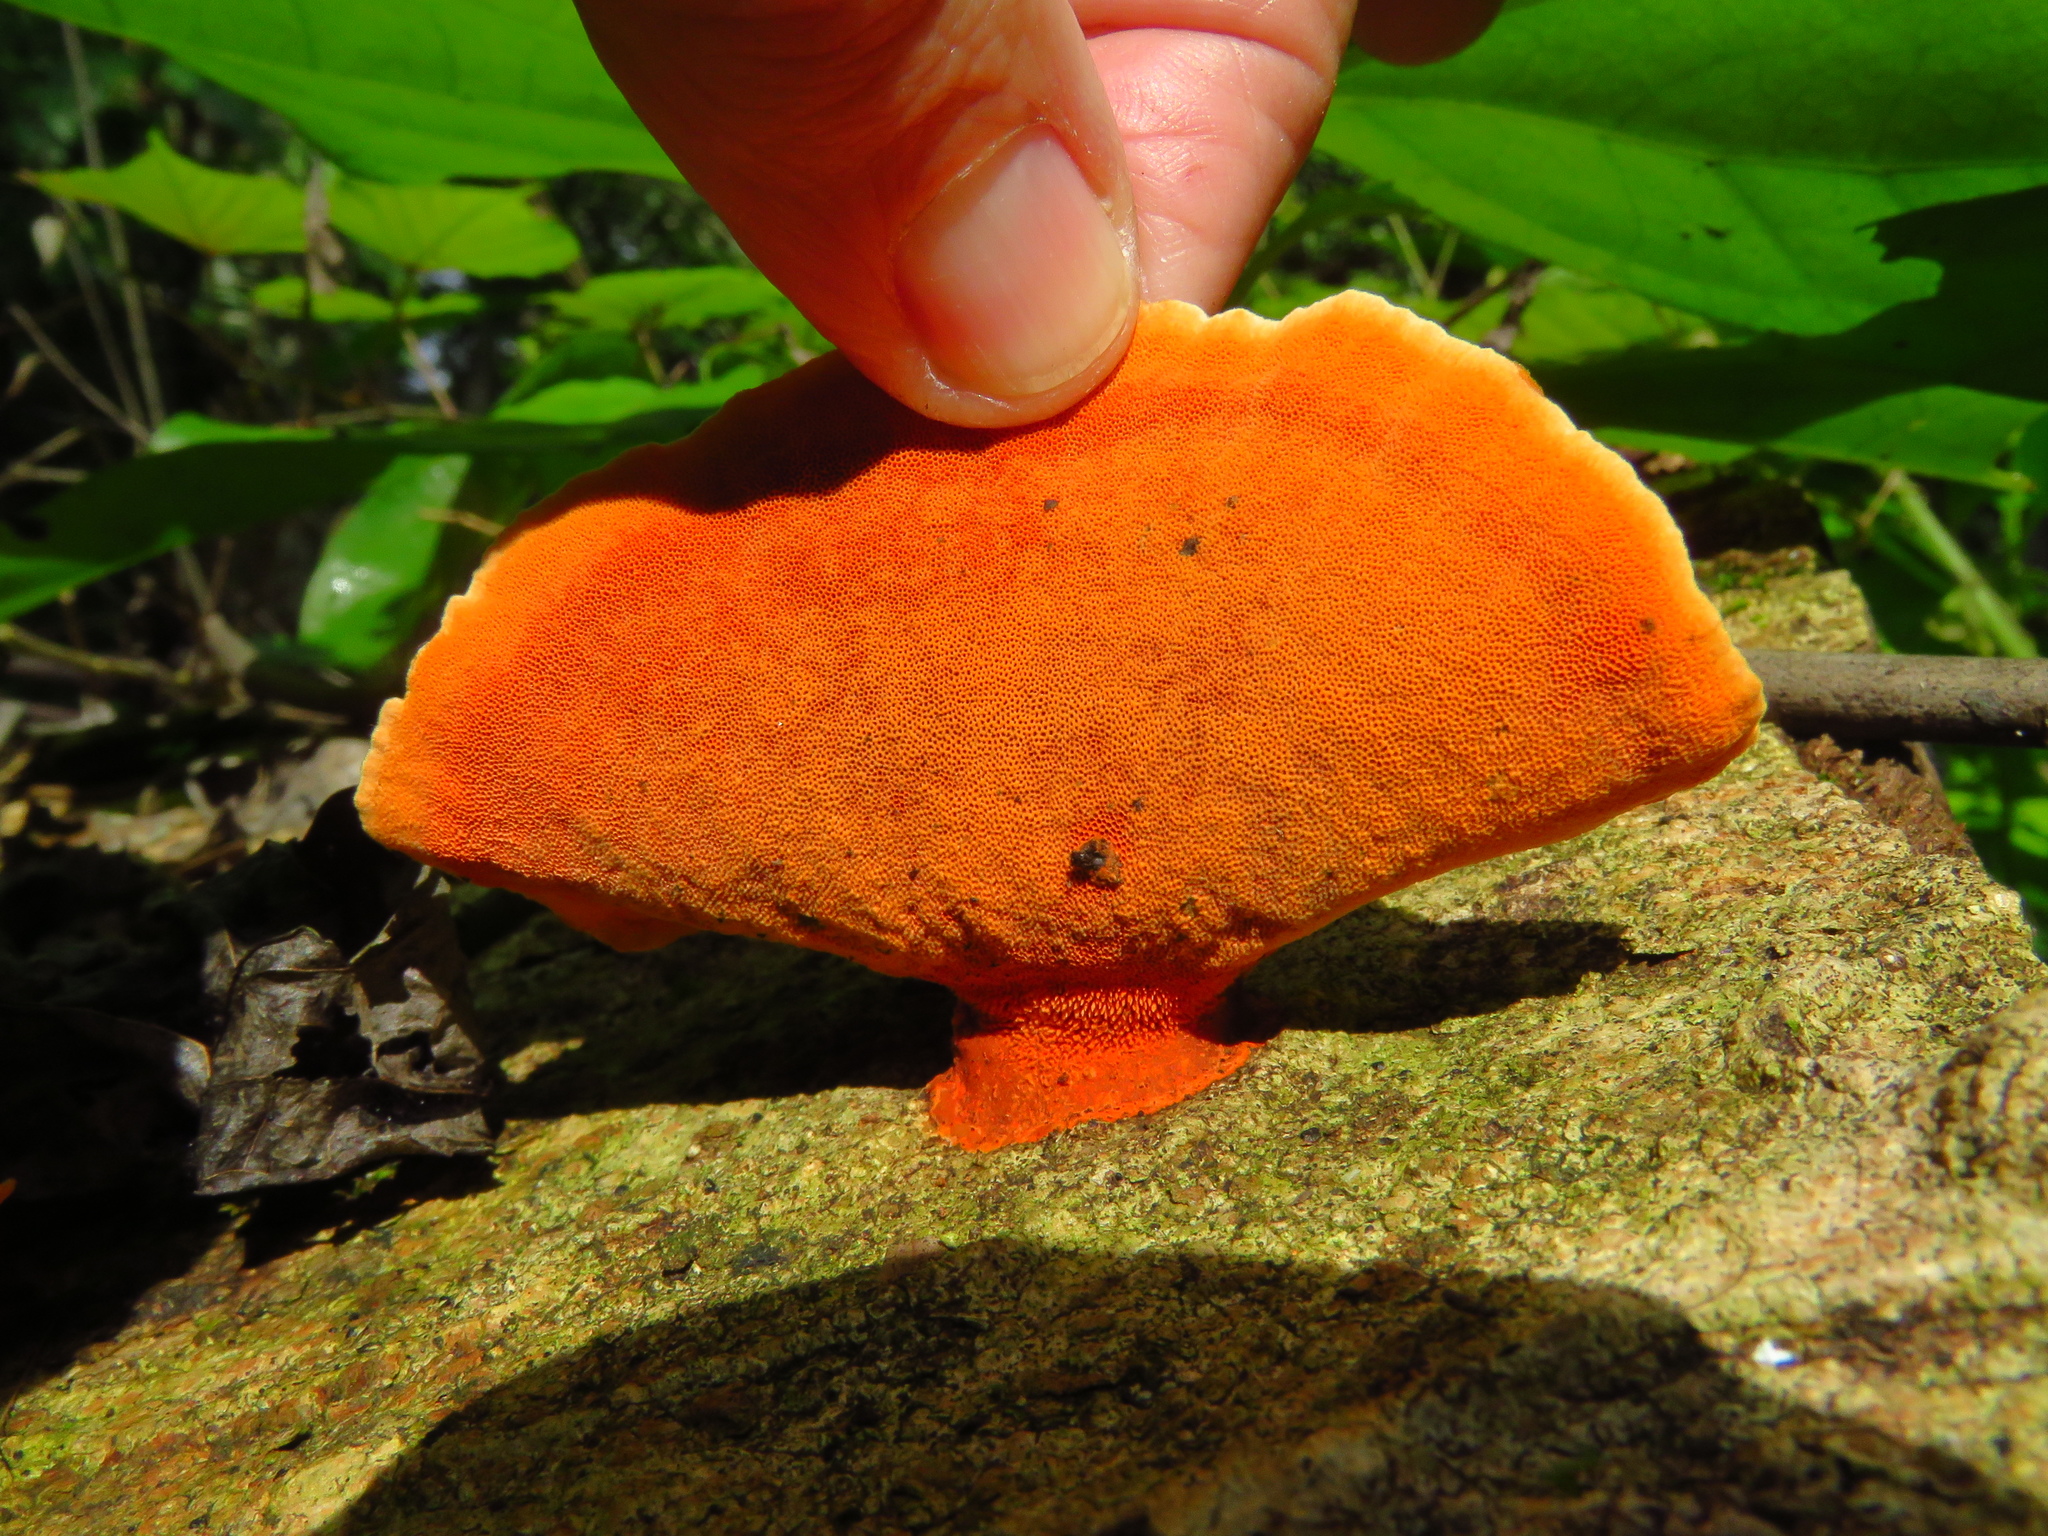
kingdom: Fungi
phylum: Basidiomycota
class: Agaricomycetes
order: Polyporales
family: Polyporaceae
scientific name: Polyporaceae
